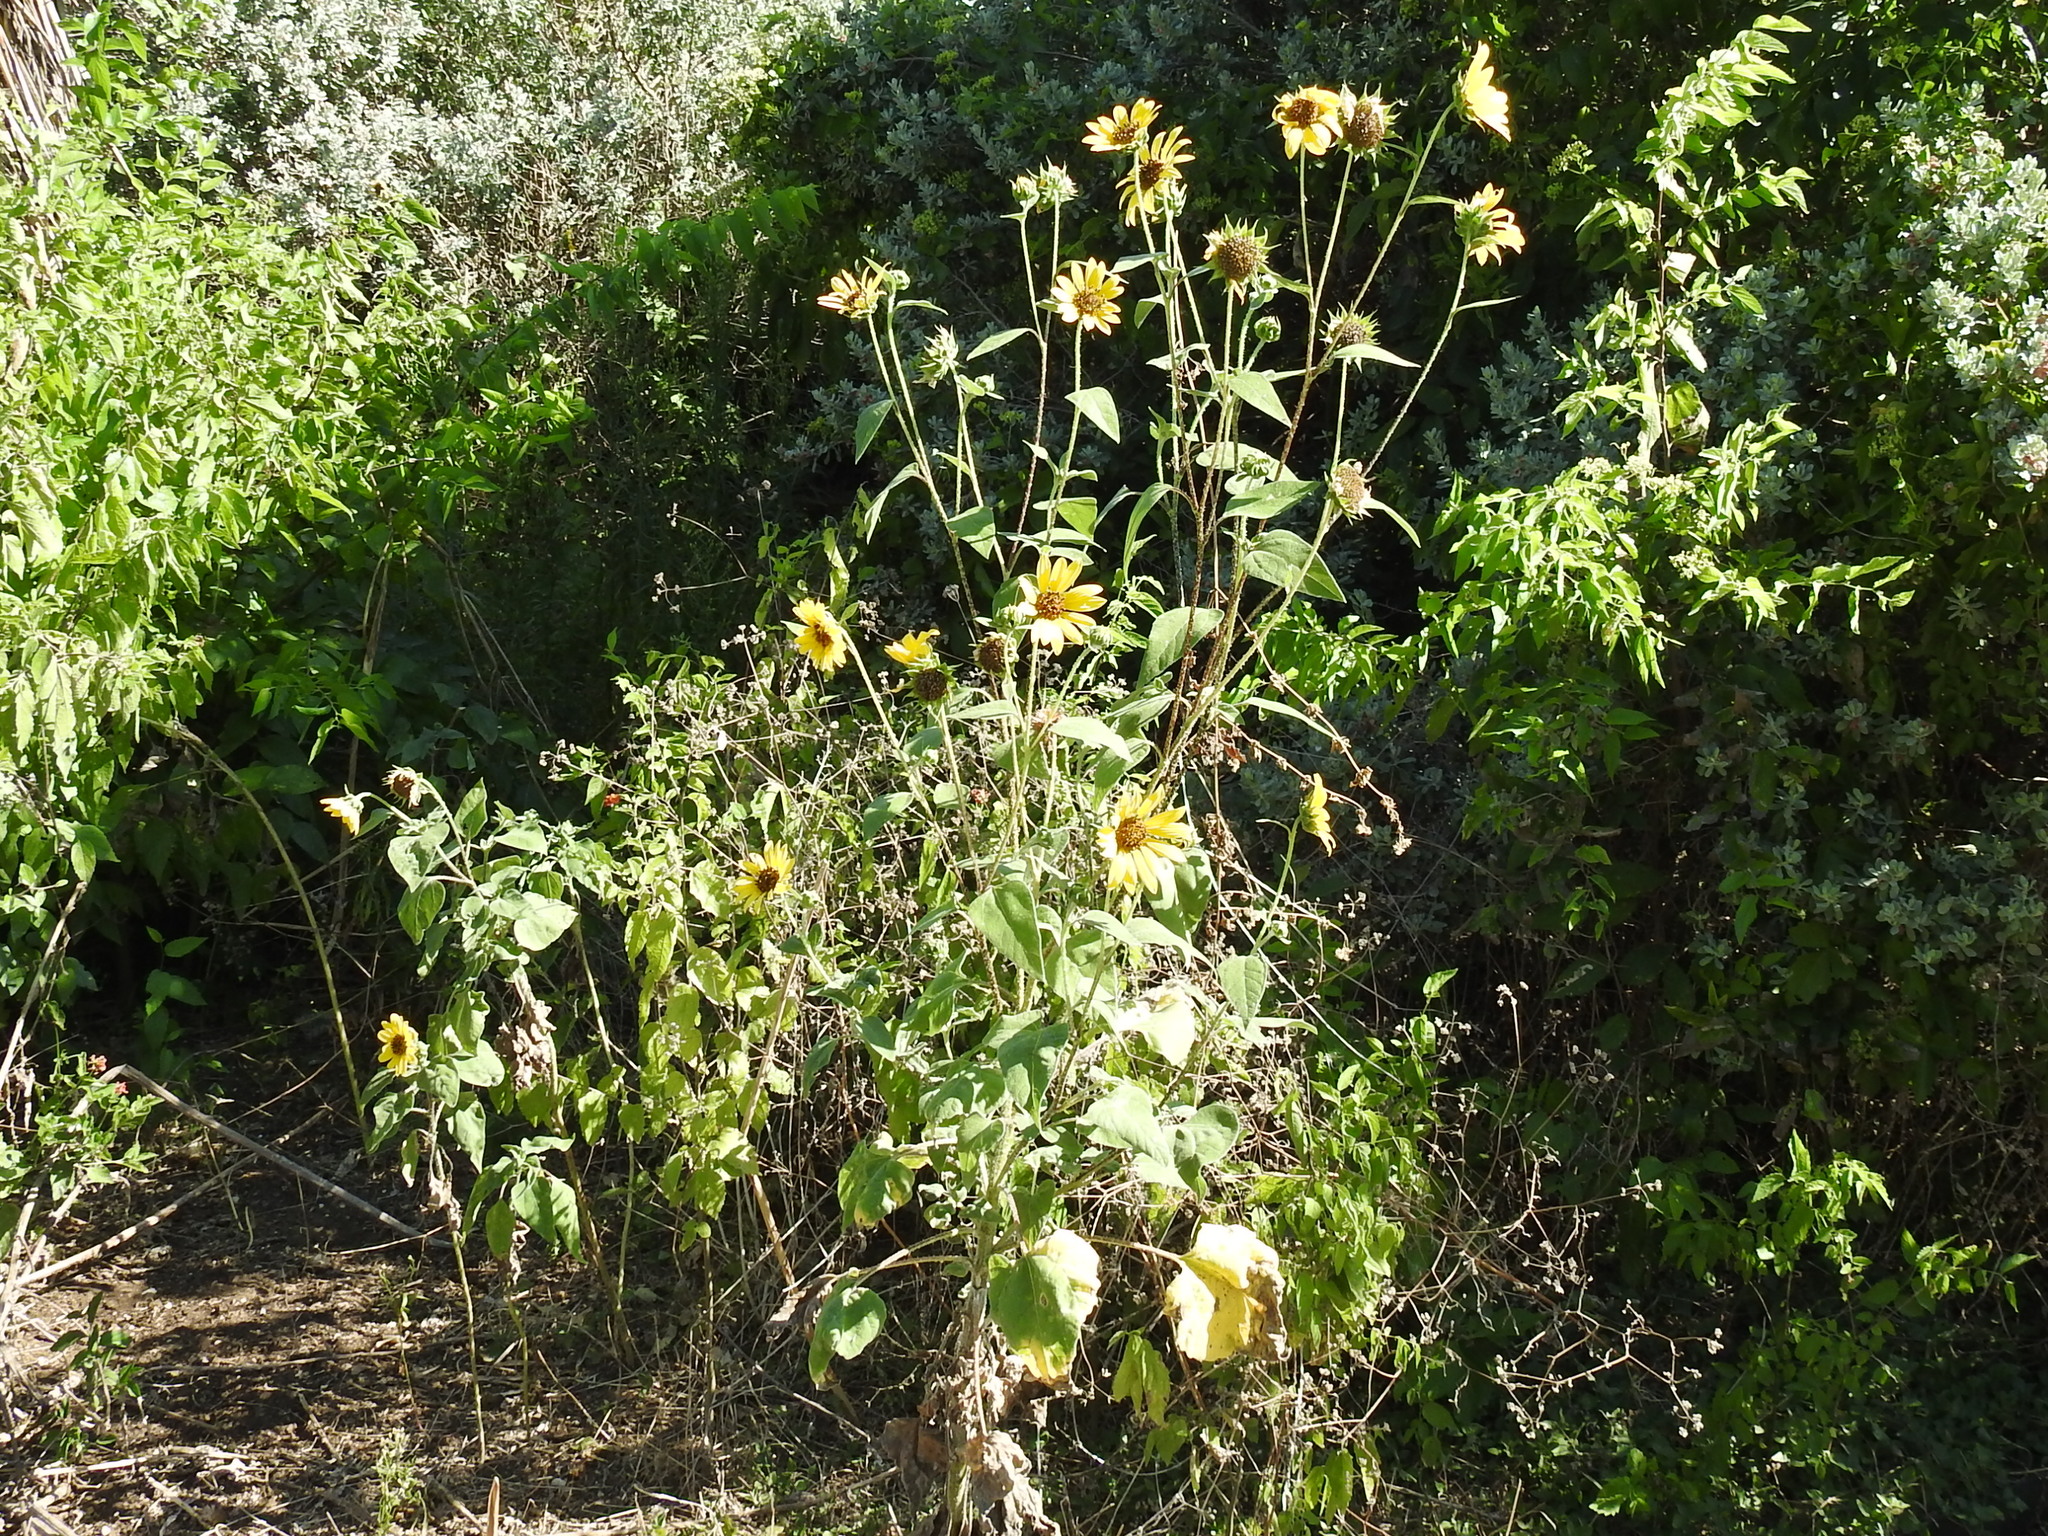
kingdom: Plantae
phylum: Tracheophyta
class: Magnoliopsida
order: Asterales
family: Asteraceae
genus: Helianthus
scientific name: Helianthus annuus
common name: Sunflower
